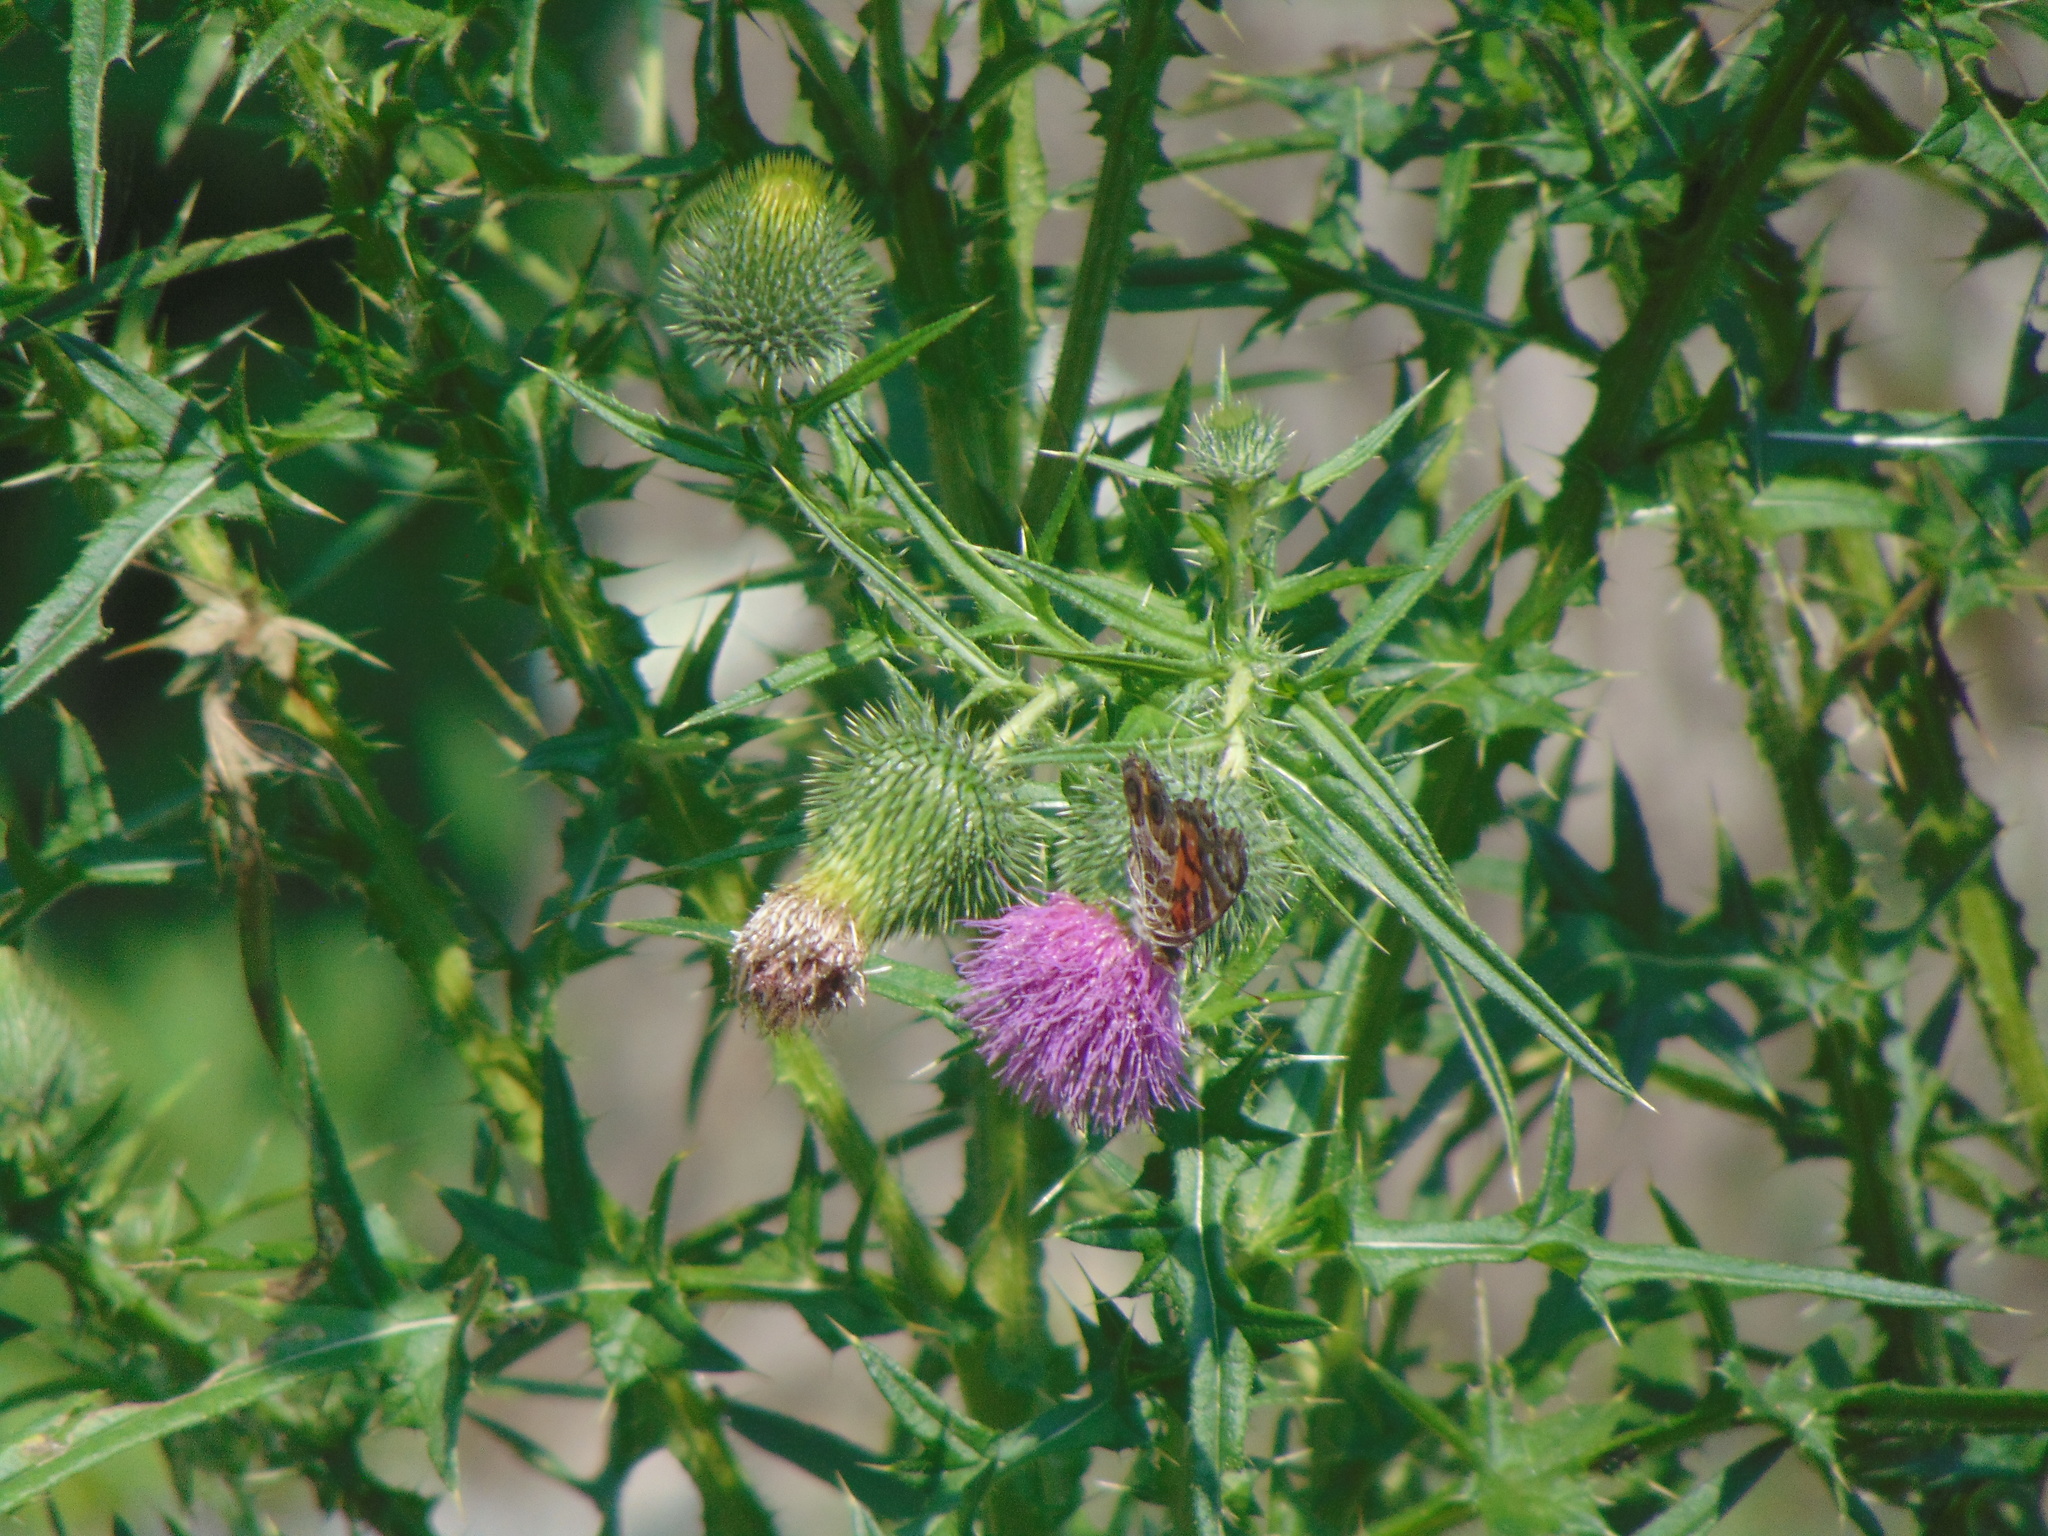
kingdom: Animalia
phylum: Arthropoda
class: Insecta
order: Lepidoptera
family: Nymphalidae
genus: Vanessa
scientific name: Vanessa virginiensis
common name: American lady
